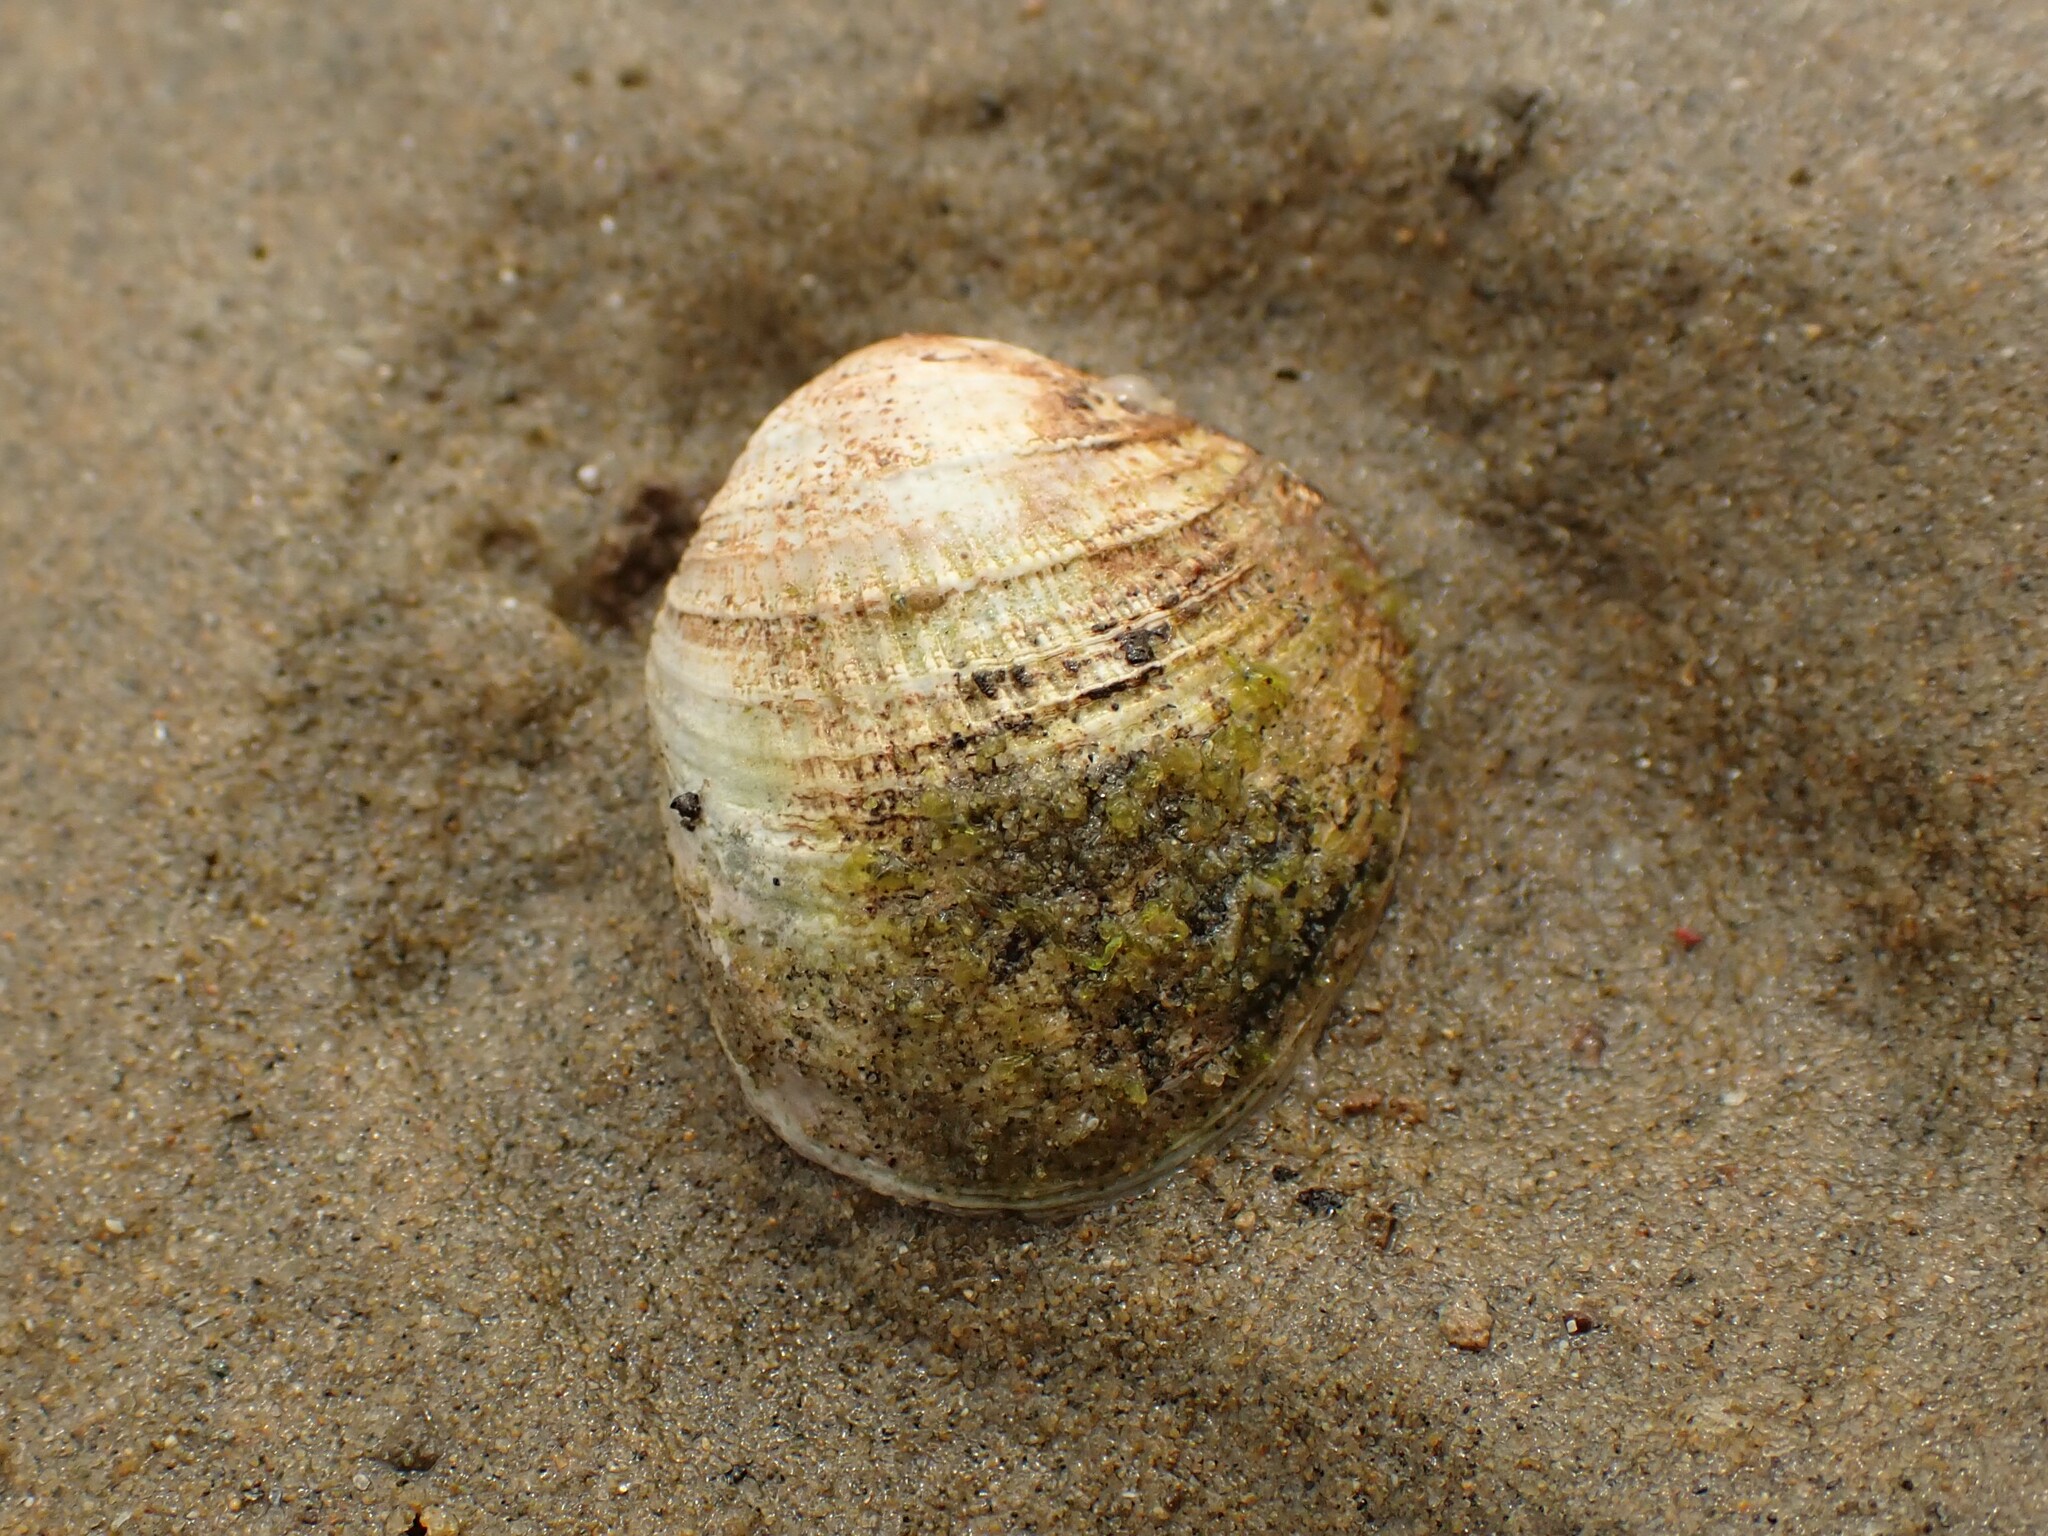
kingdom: Animalia
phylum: Mollusca
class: Bivalvia
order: Venerida
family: Veneridae
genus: Austrovenus
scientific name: Austrovenus stutchburyi
